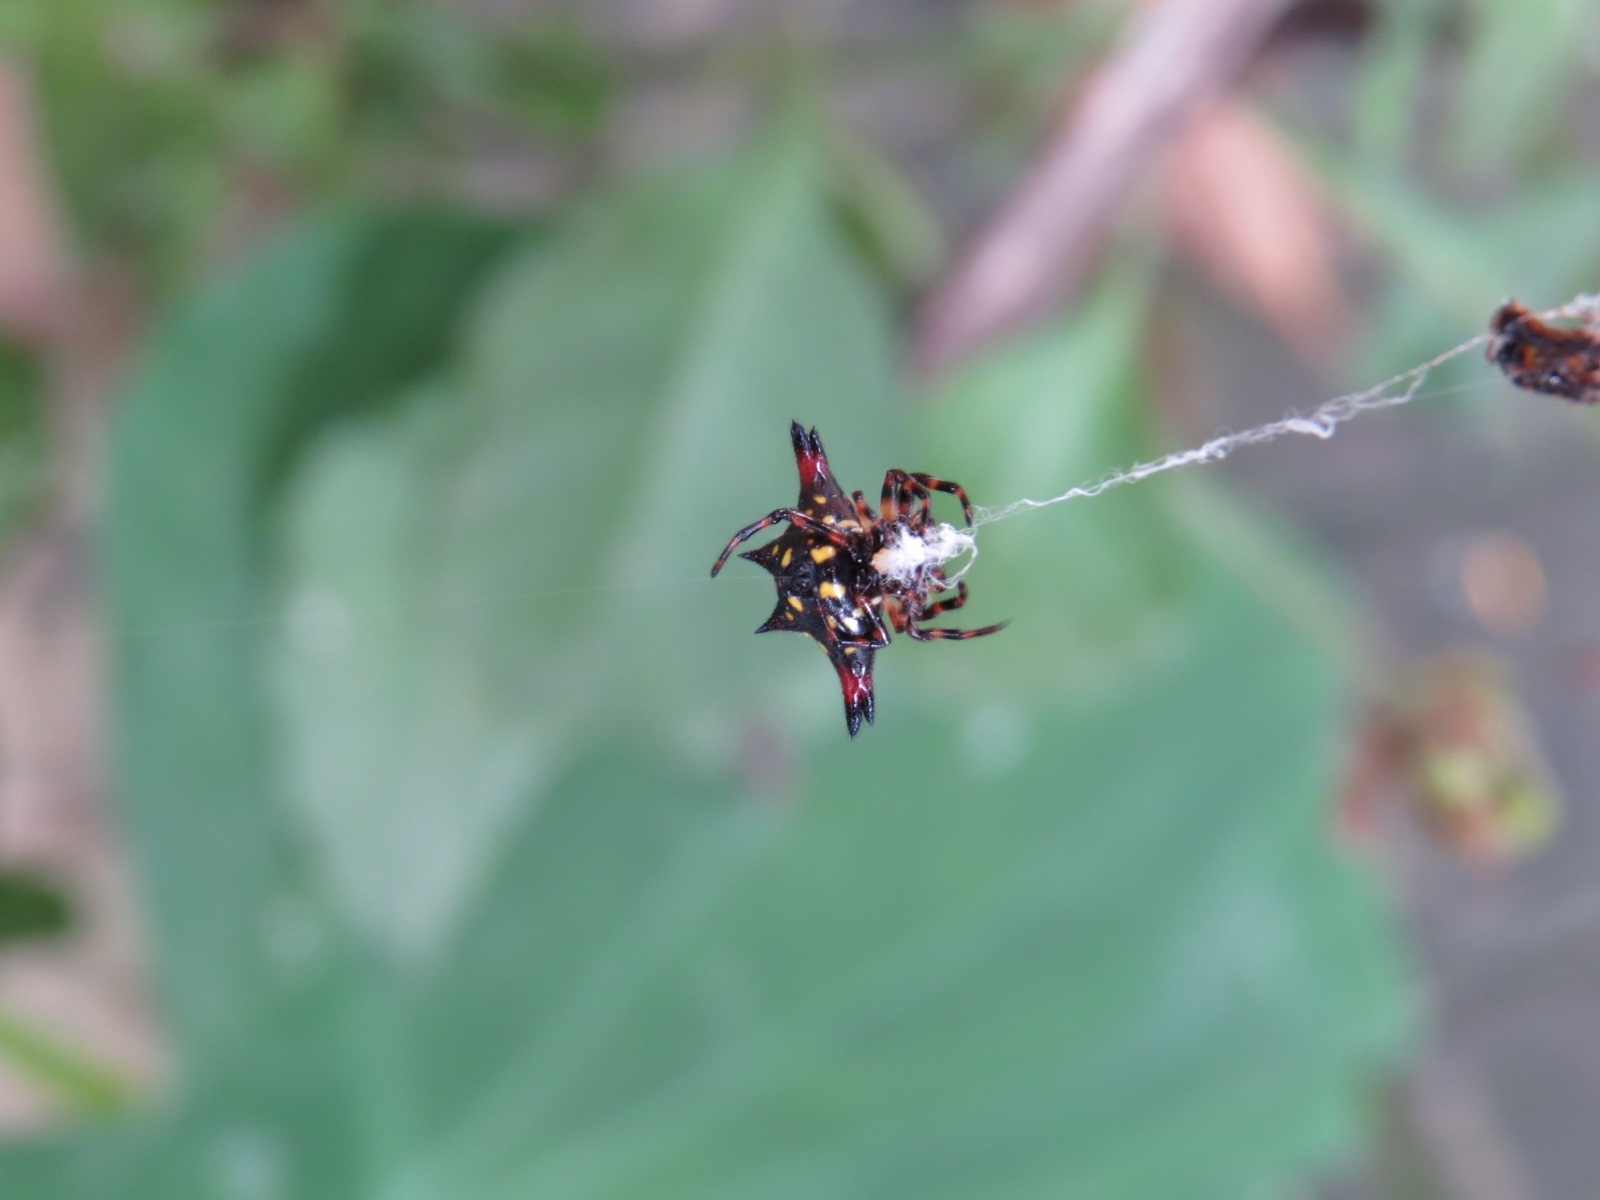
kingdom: Animalia
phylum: Arthropoda
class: Arachnida
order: Araneae
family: Araneidae
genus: Gasteracantha
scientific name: Gasteracantha geminata
